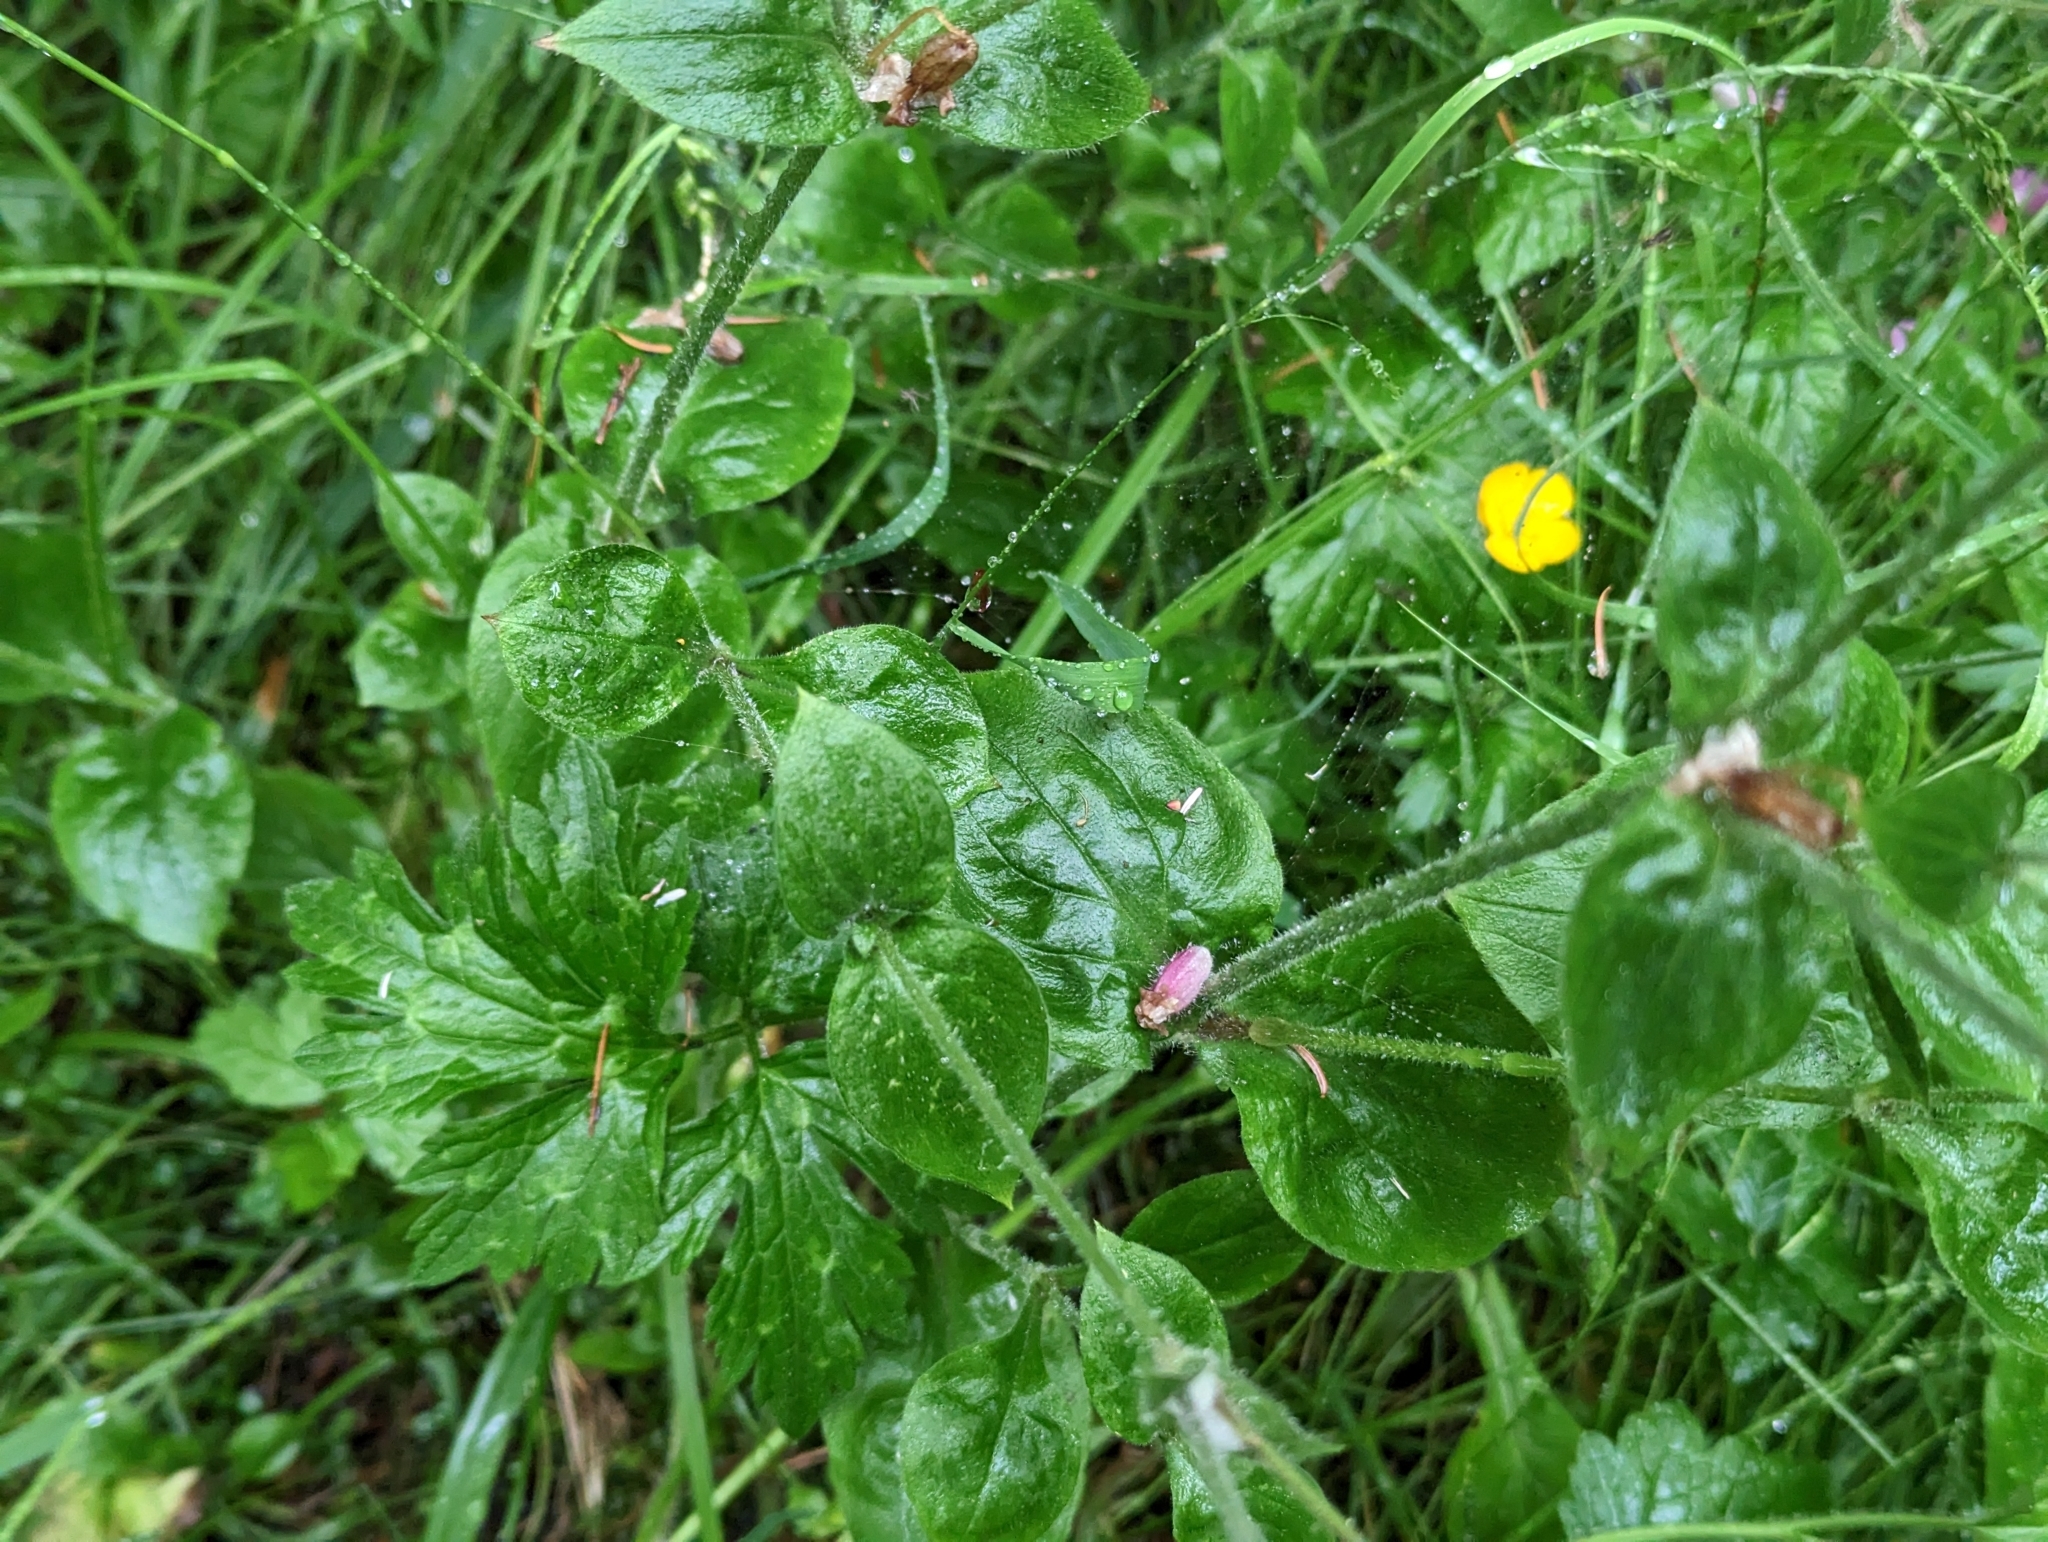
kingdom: Plantae
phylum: Tracheophyta
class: Magnoliopsida
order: Caryophyllales
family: Caryophyllaceae
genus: Silene
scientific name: Silene dioica
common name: Red campion
